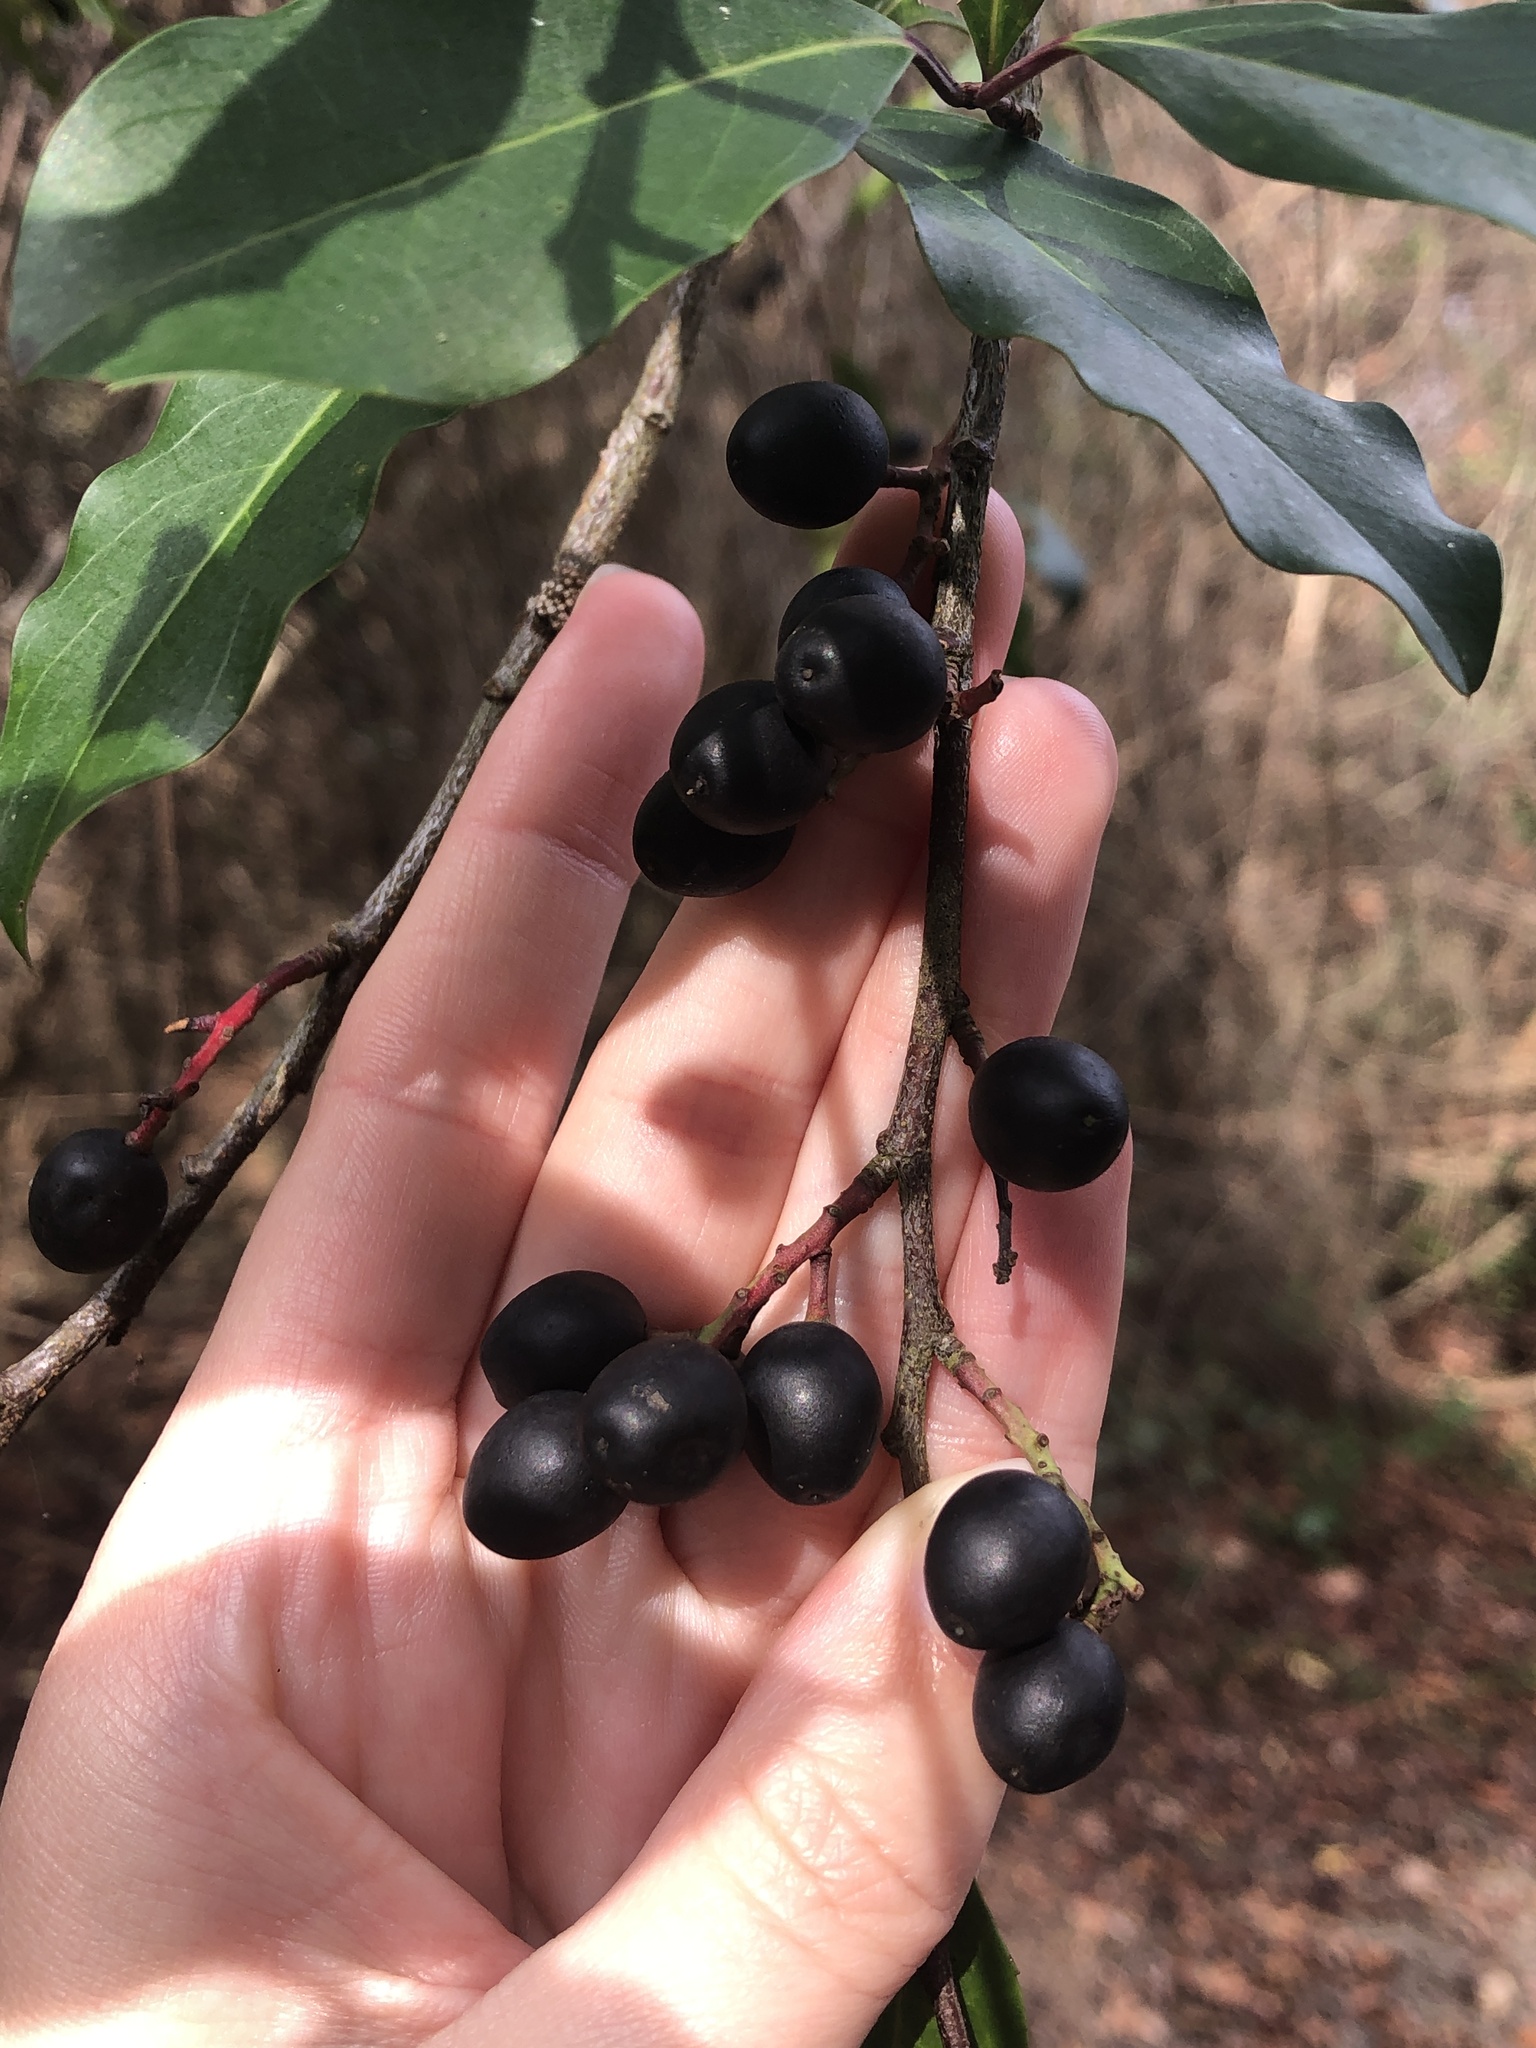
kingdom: Plantae
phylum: Tracheophyta
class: Magnoliopsida
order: Rosales
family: Rosaceae
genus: Prunus
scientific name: Prunus caroliniana
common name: Carolina laurel cherry
